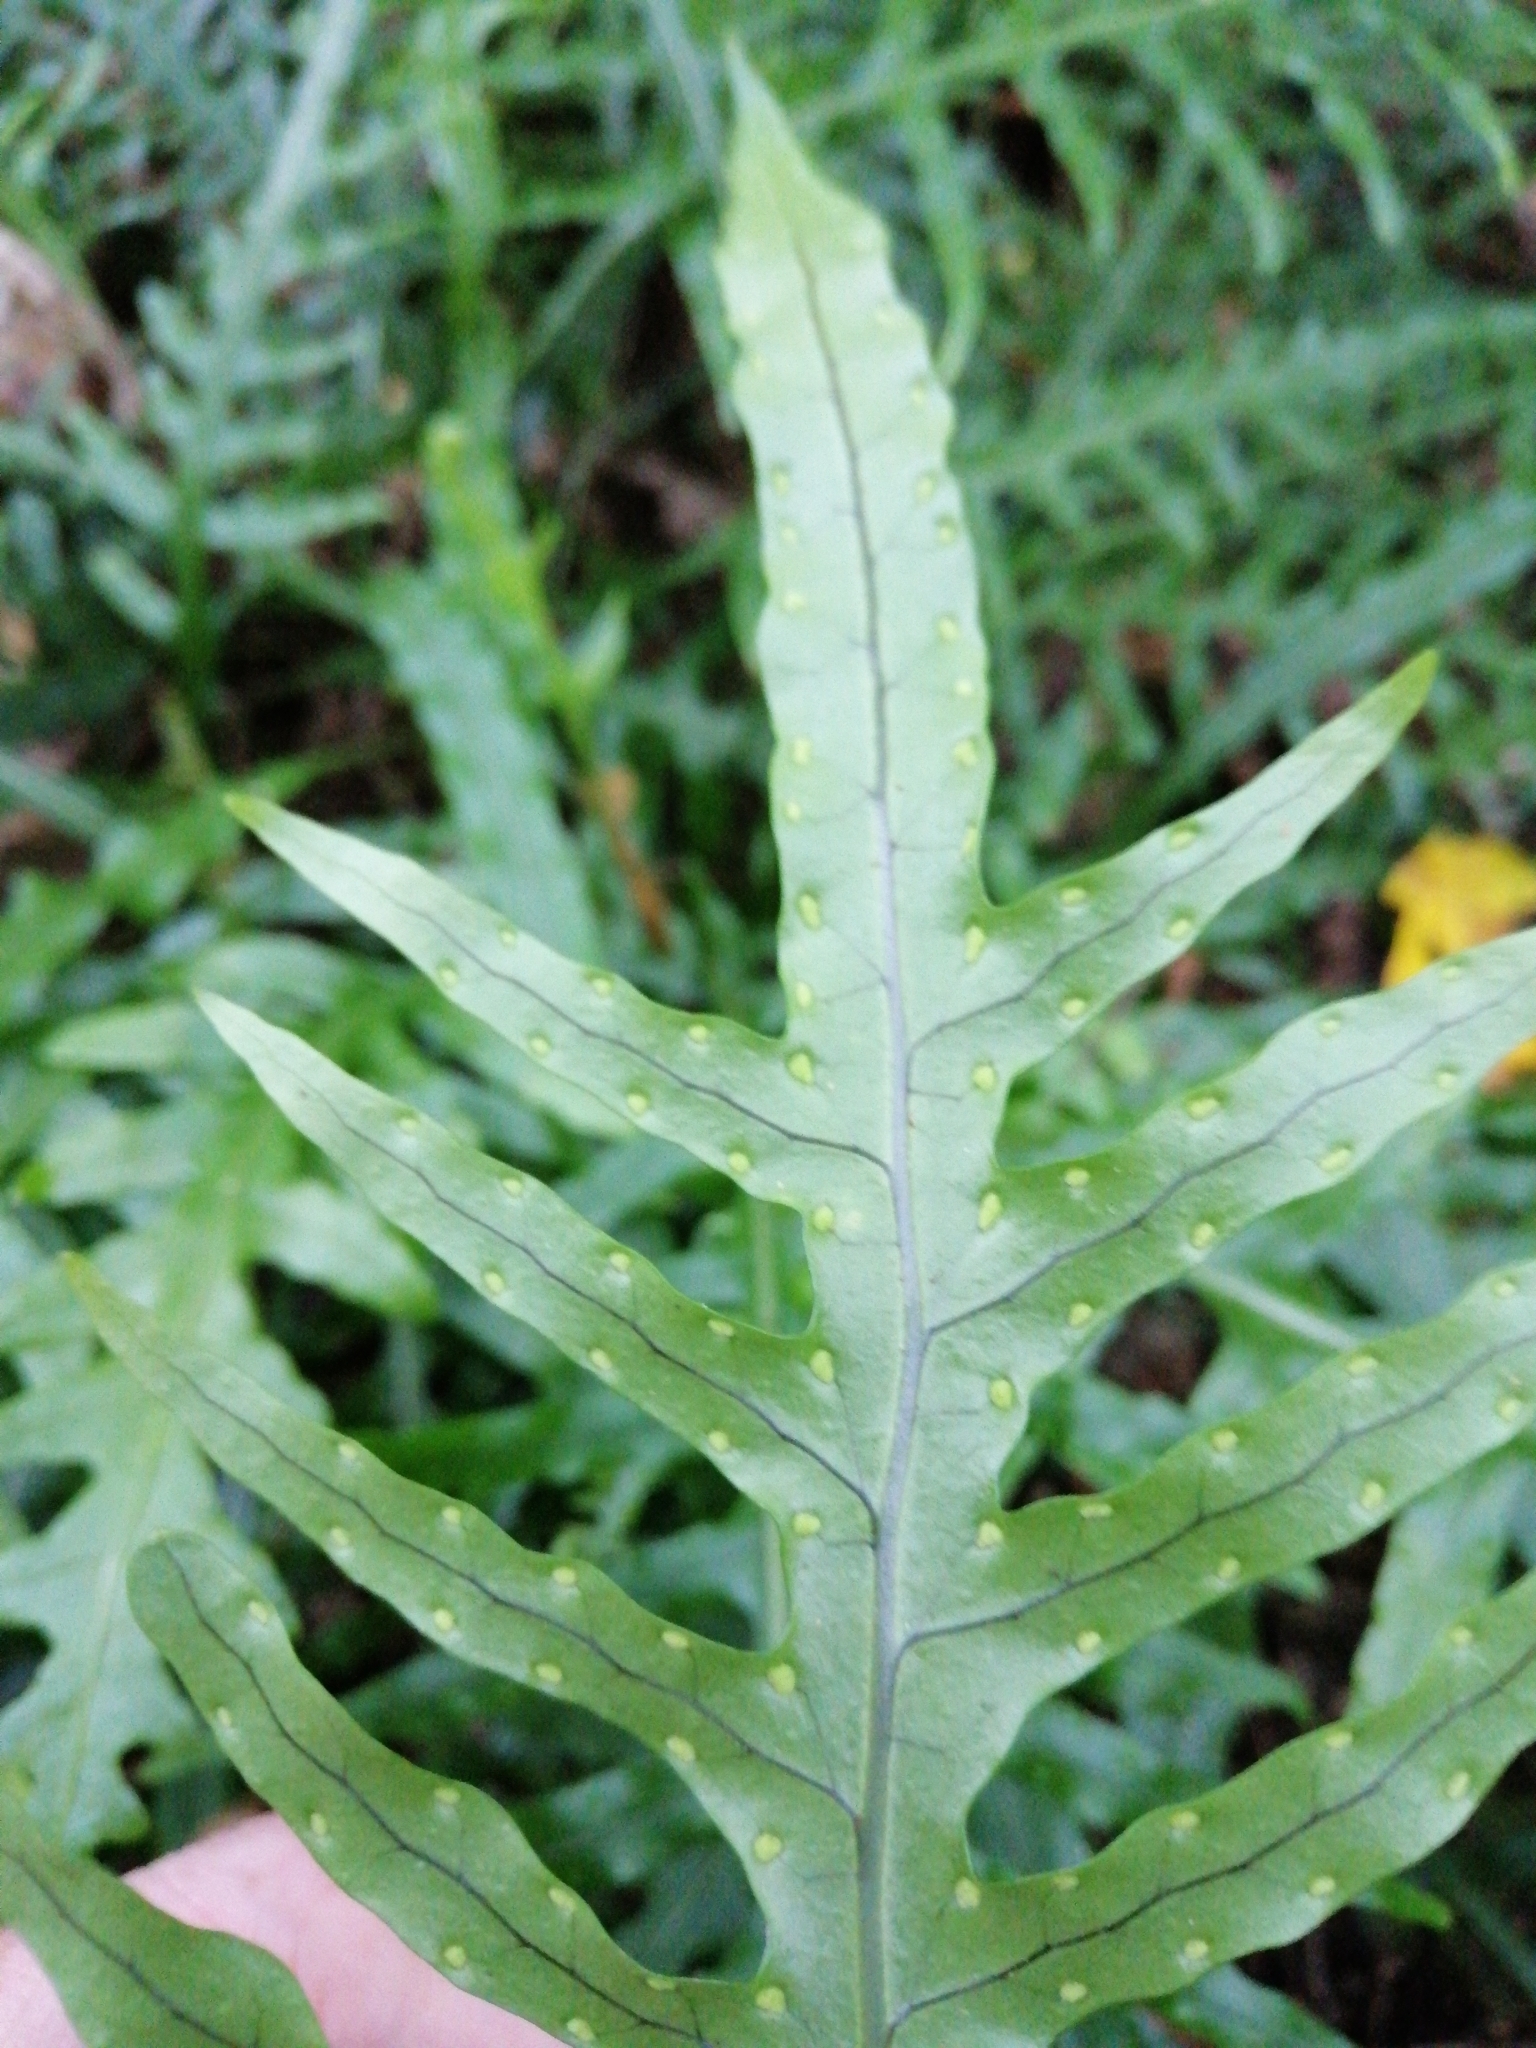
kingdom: Plantae
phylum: Tracheophyta
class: Polypodiopsida
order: Polypodiales
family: Polypodiaceae
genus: Lecanopteris
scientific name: Lecanopteris scandens
